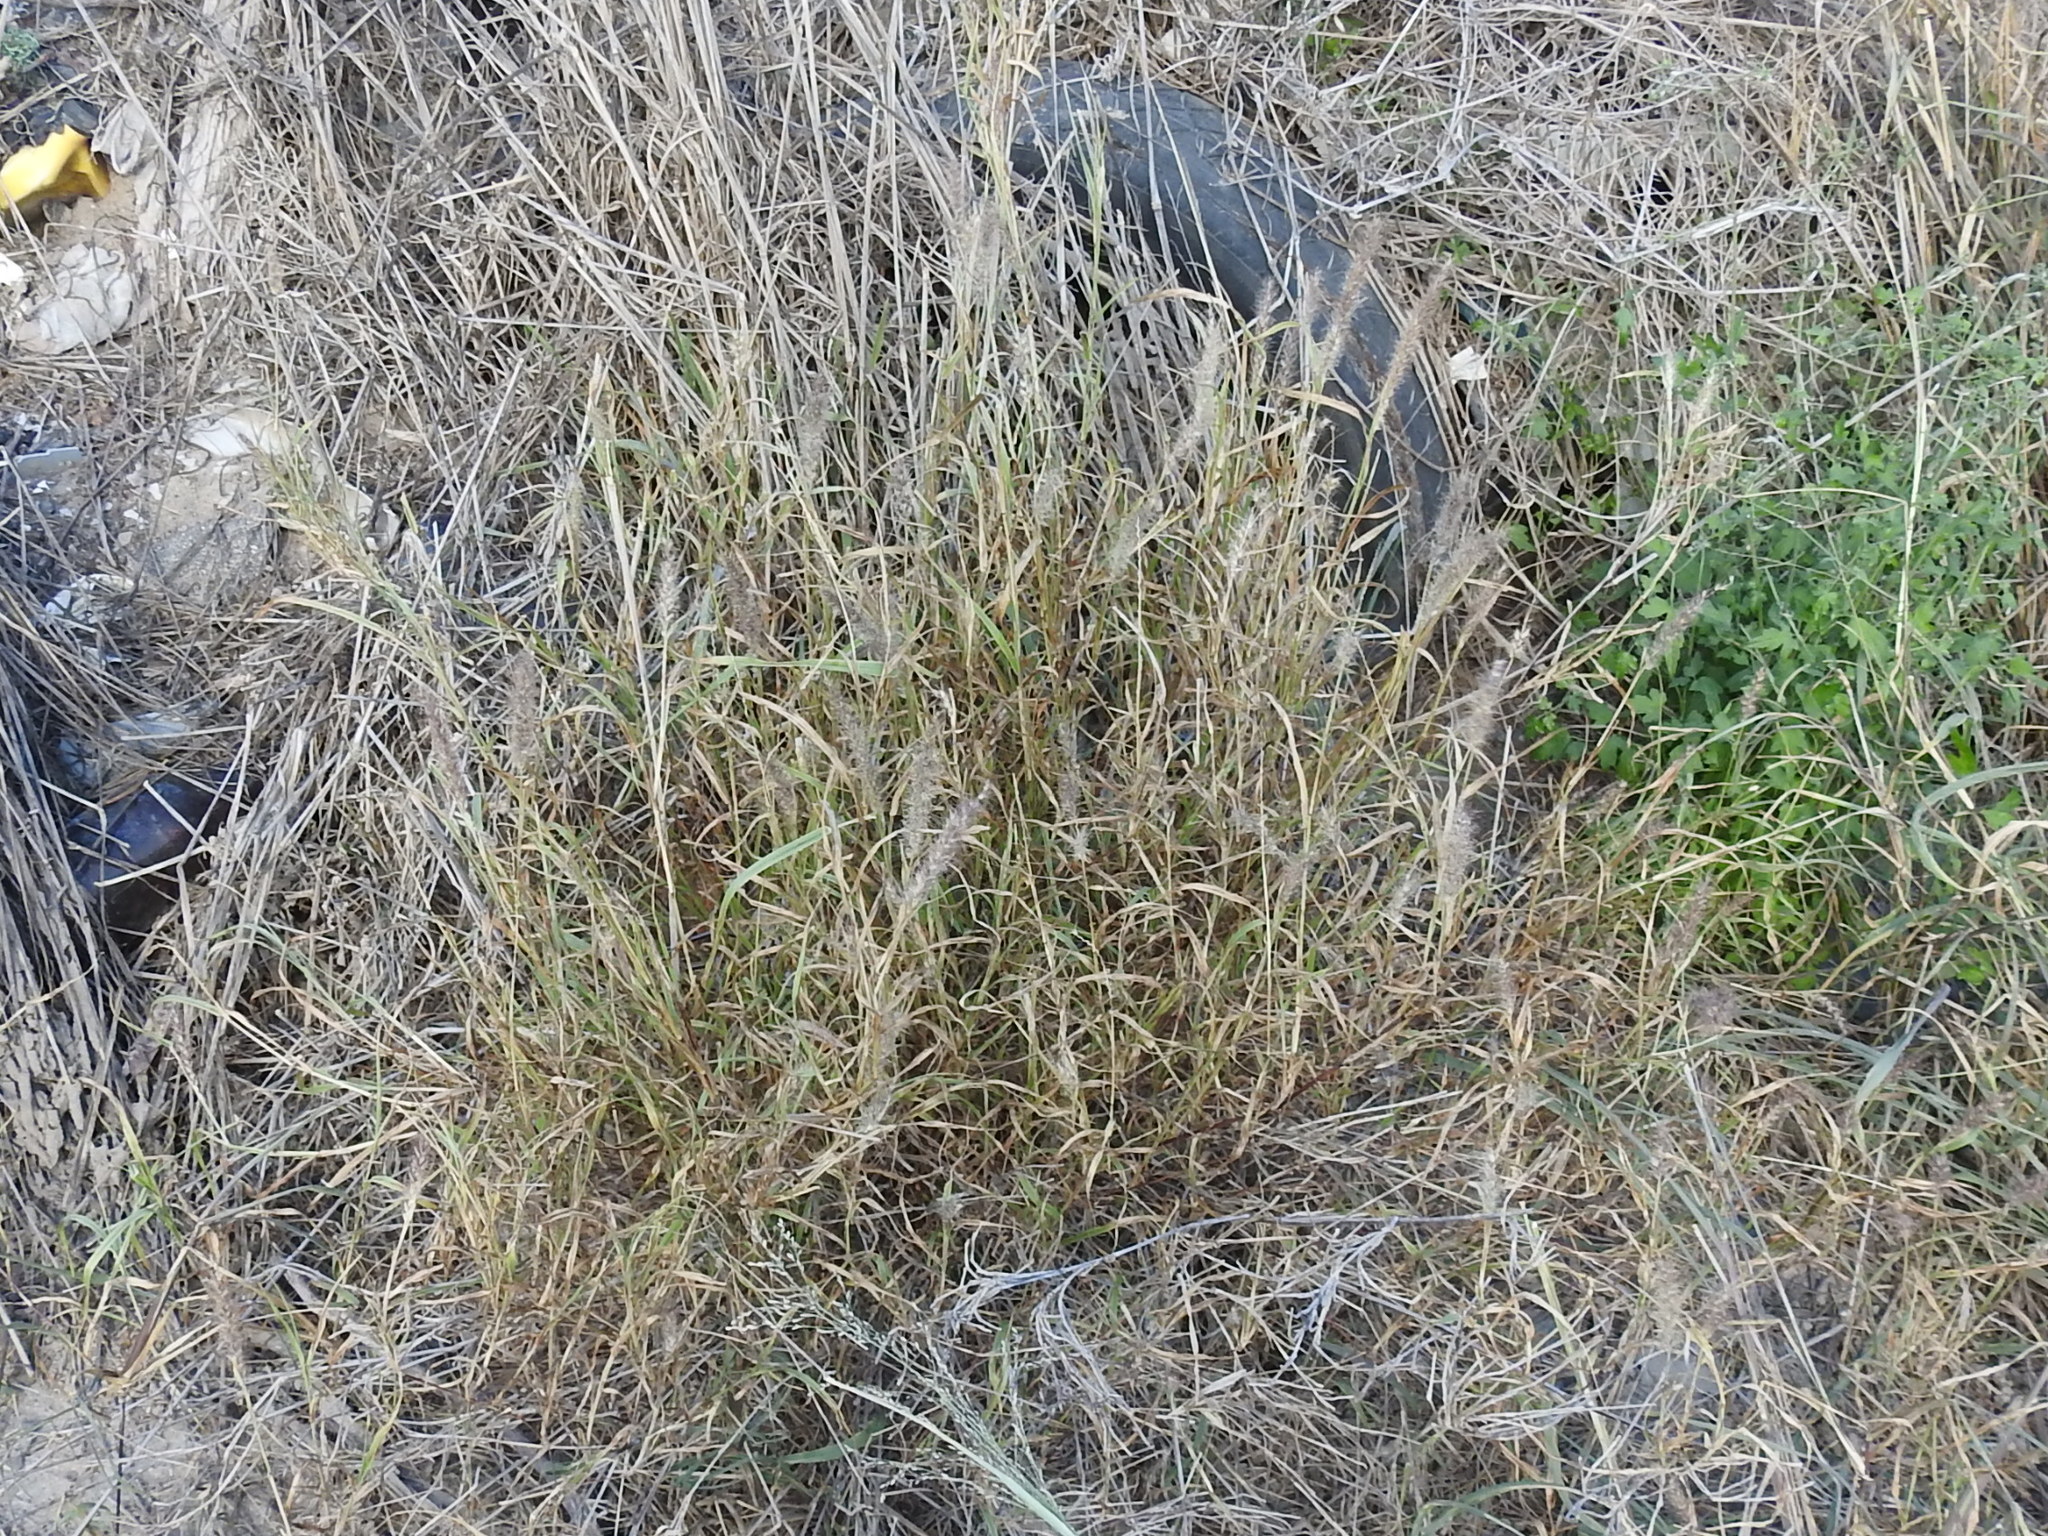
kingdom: Plantae
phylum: Tracheophyta
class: Liliopsida
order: Poales
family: Poaceae
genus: Cenchrus
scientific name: Cenchrus ciliaris
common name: Buffelgrass
